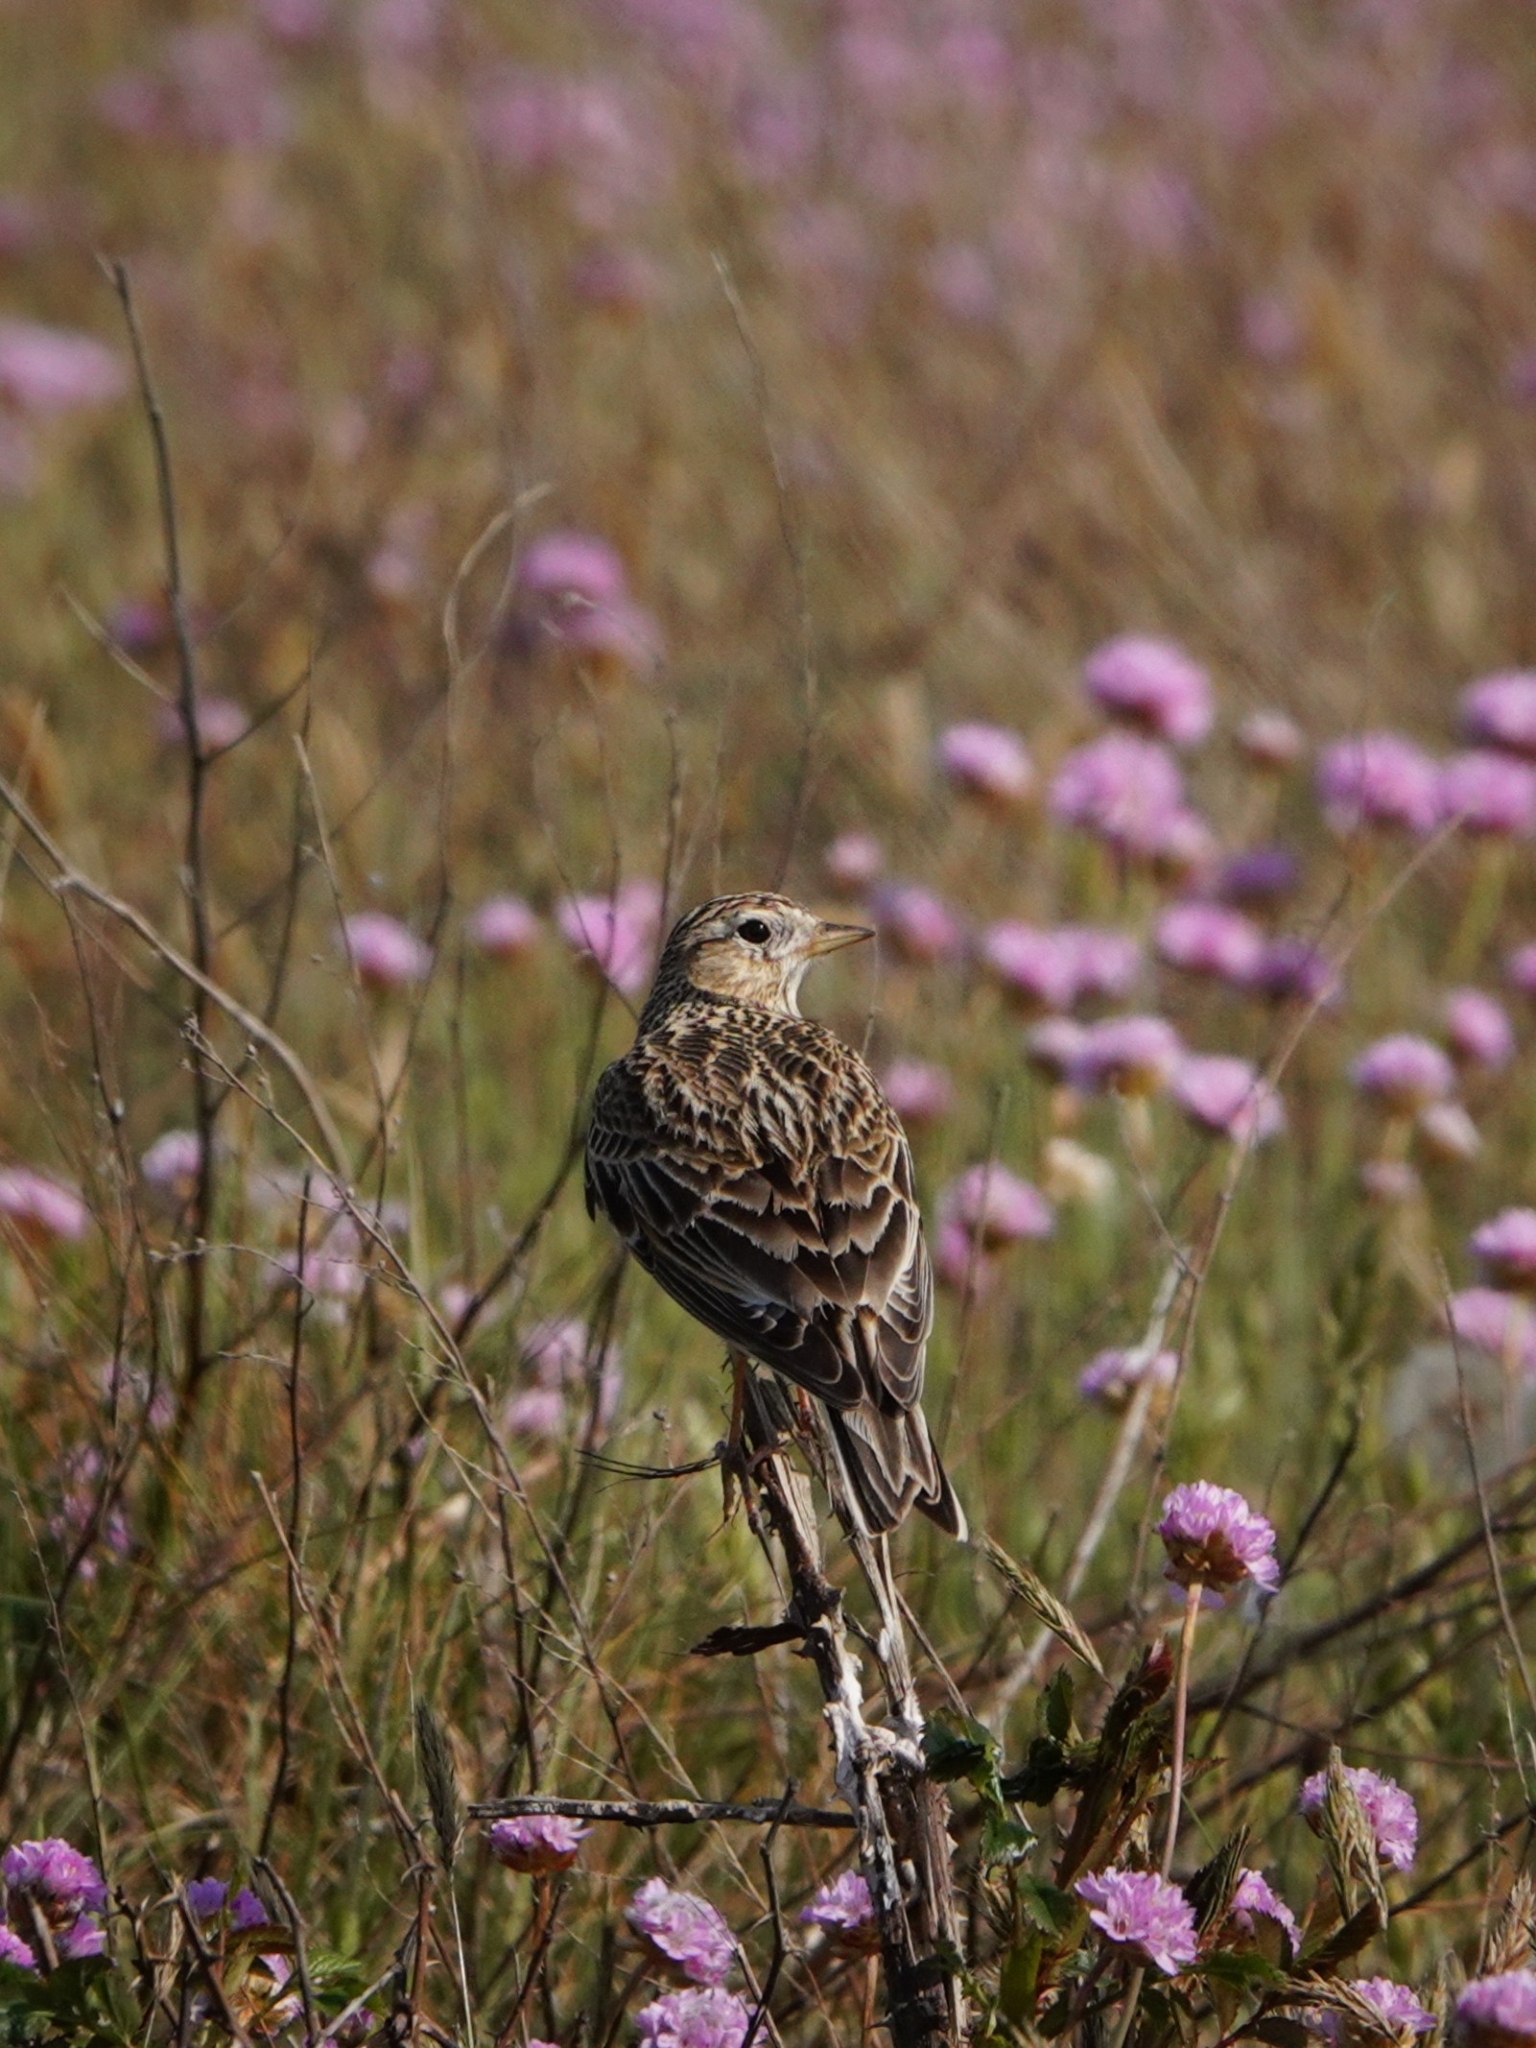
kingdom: Animalia
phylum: Chordata
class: Aves
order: Passeriformes
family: Alaudidae
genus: Alauda
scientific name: Alauda arvensis
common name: Eurasian skylark
